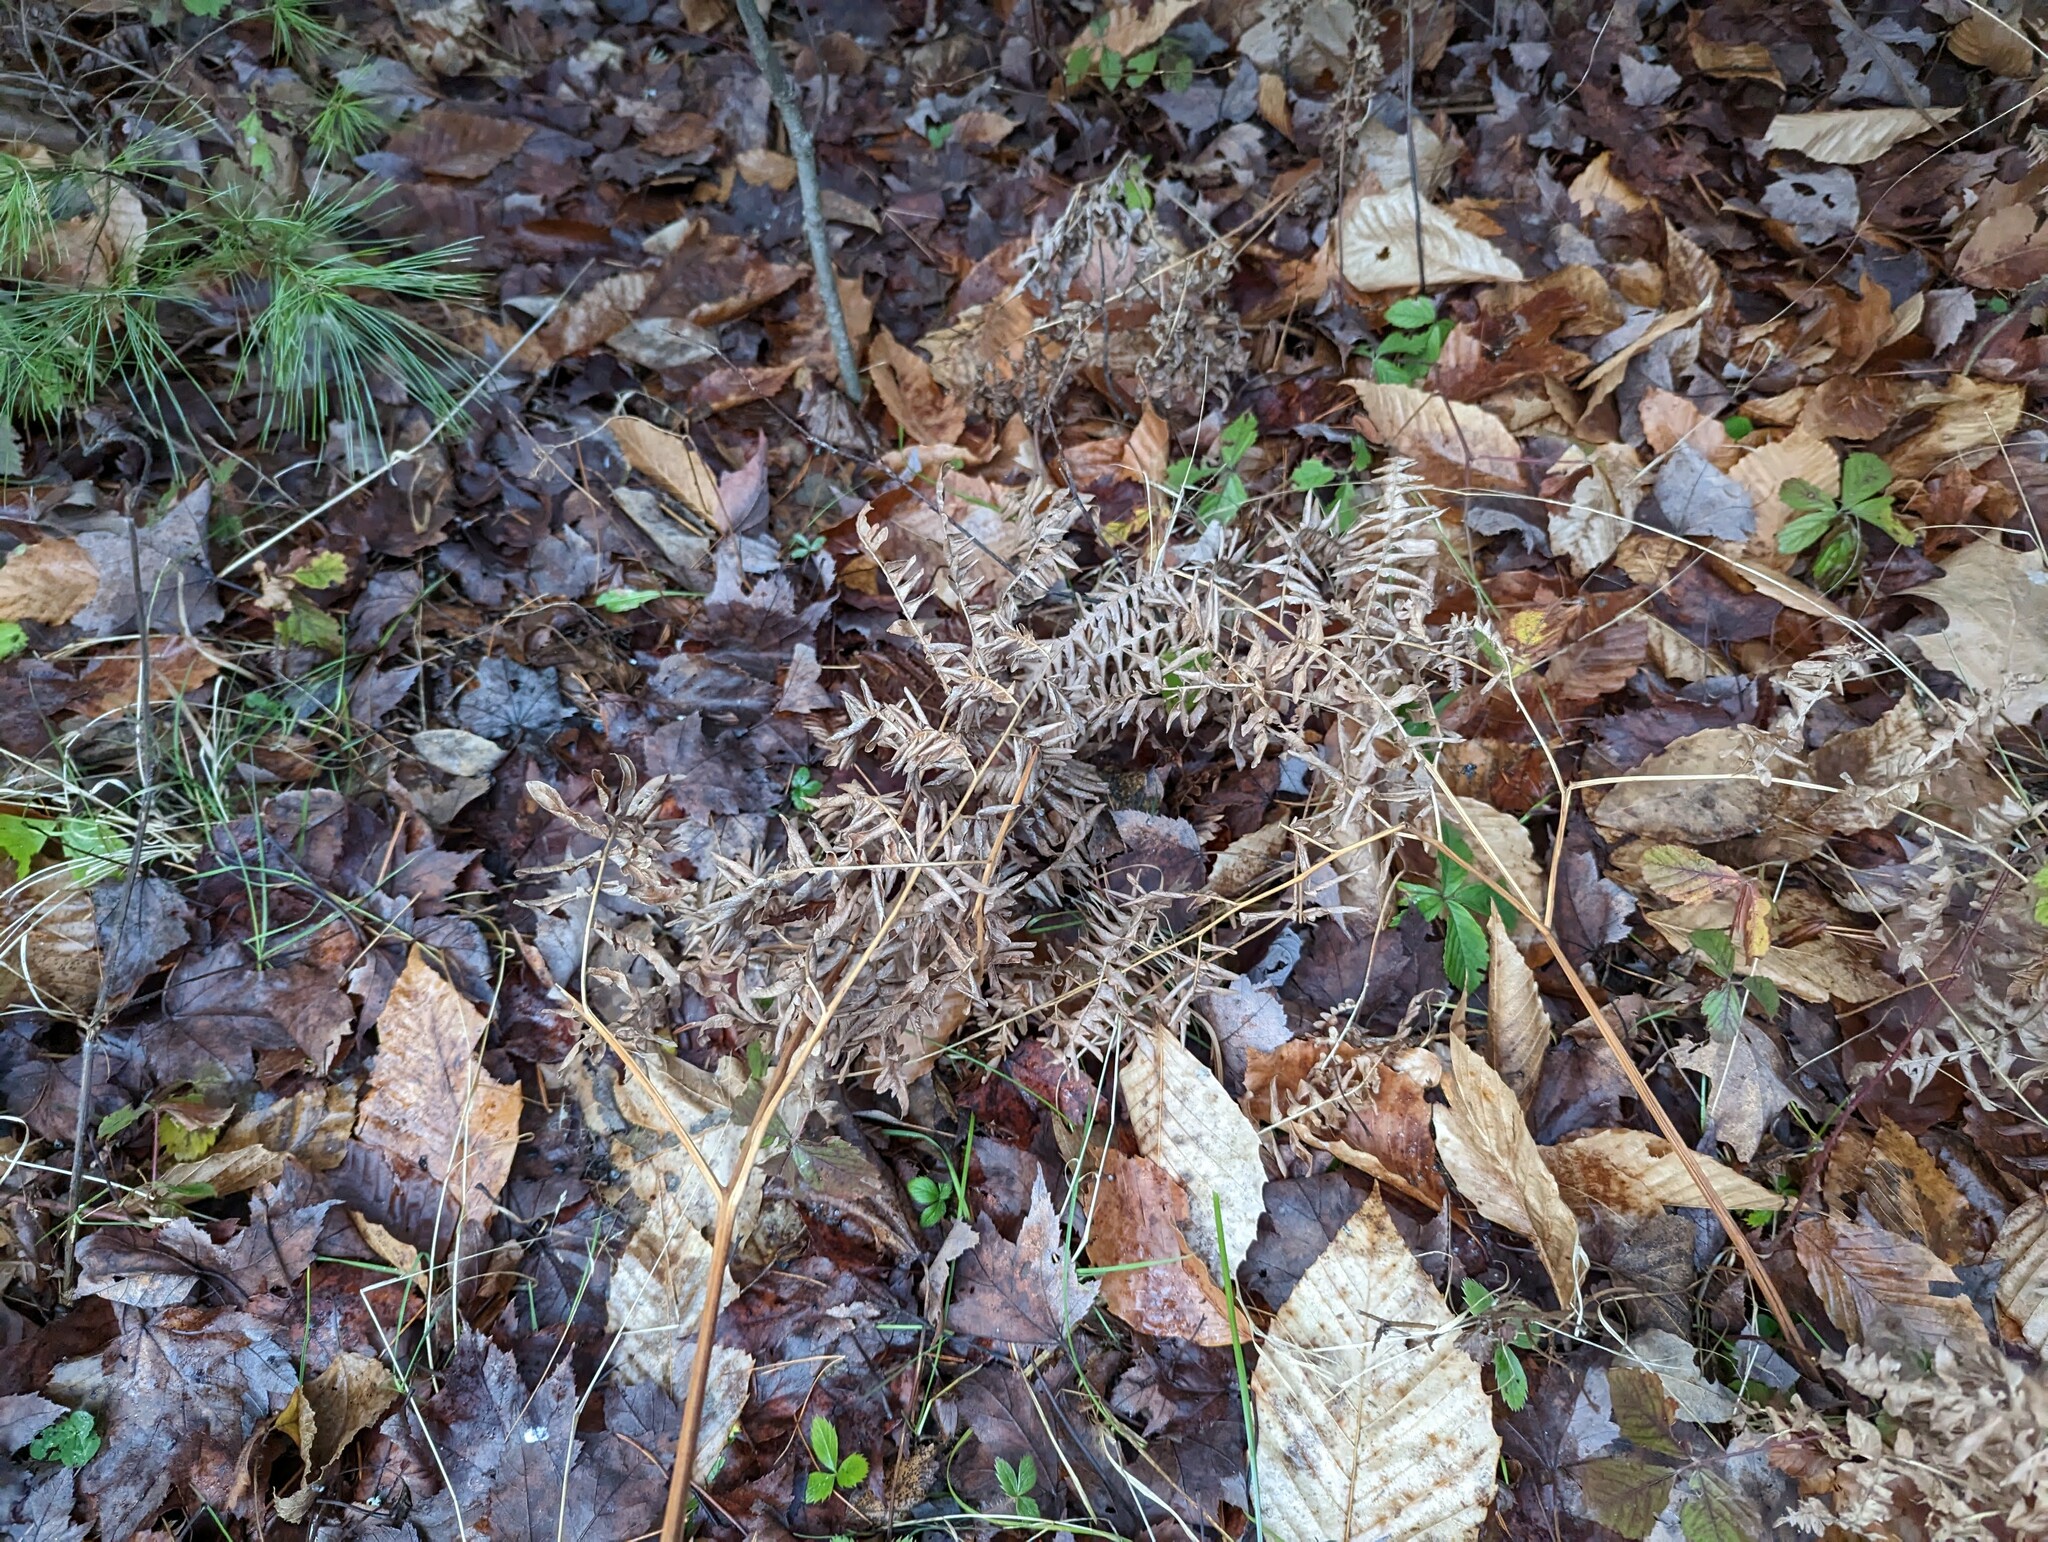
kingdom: Plantae
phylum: Tracheophyta
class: Polypodiopsida
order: Polypodiales
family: Dennstaedtiaceae
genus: Pteridium
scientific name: Pteridium aquilinum
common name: Bracken
